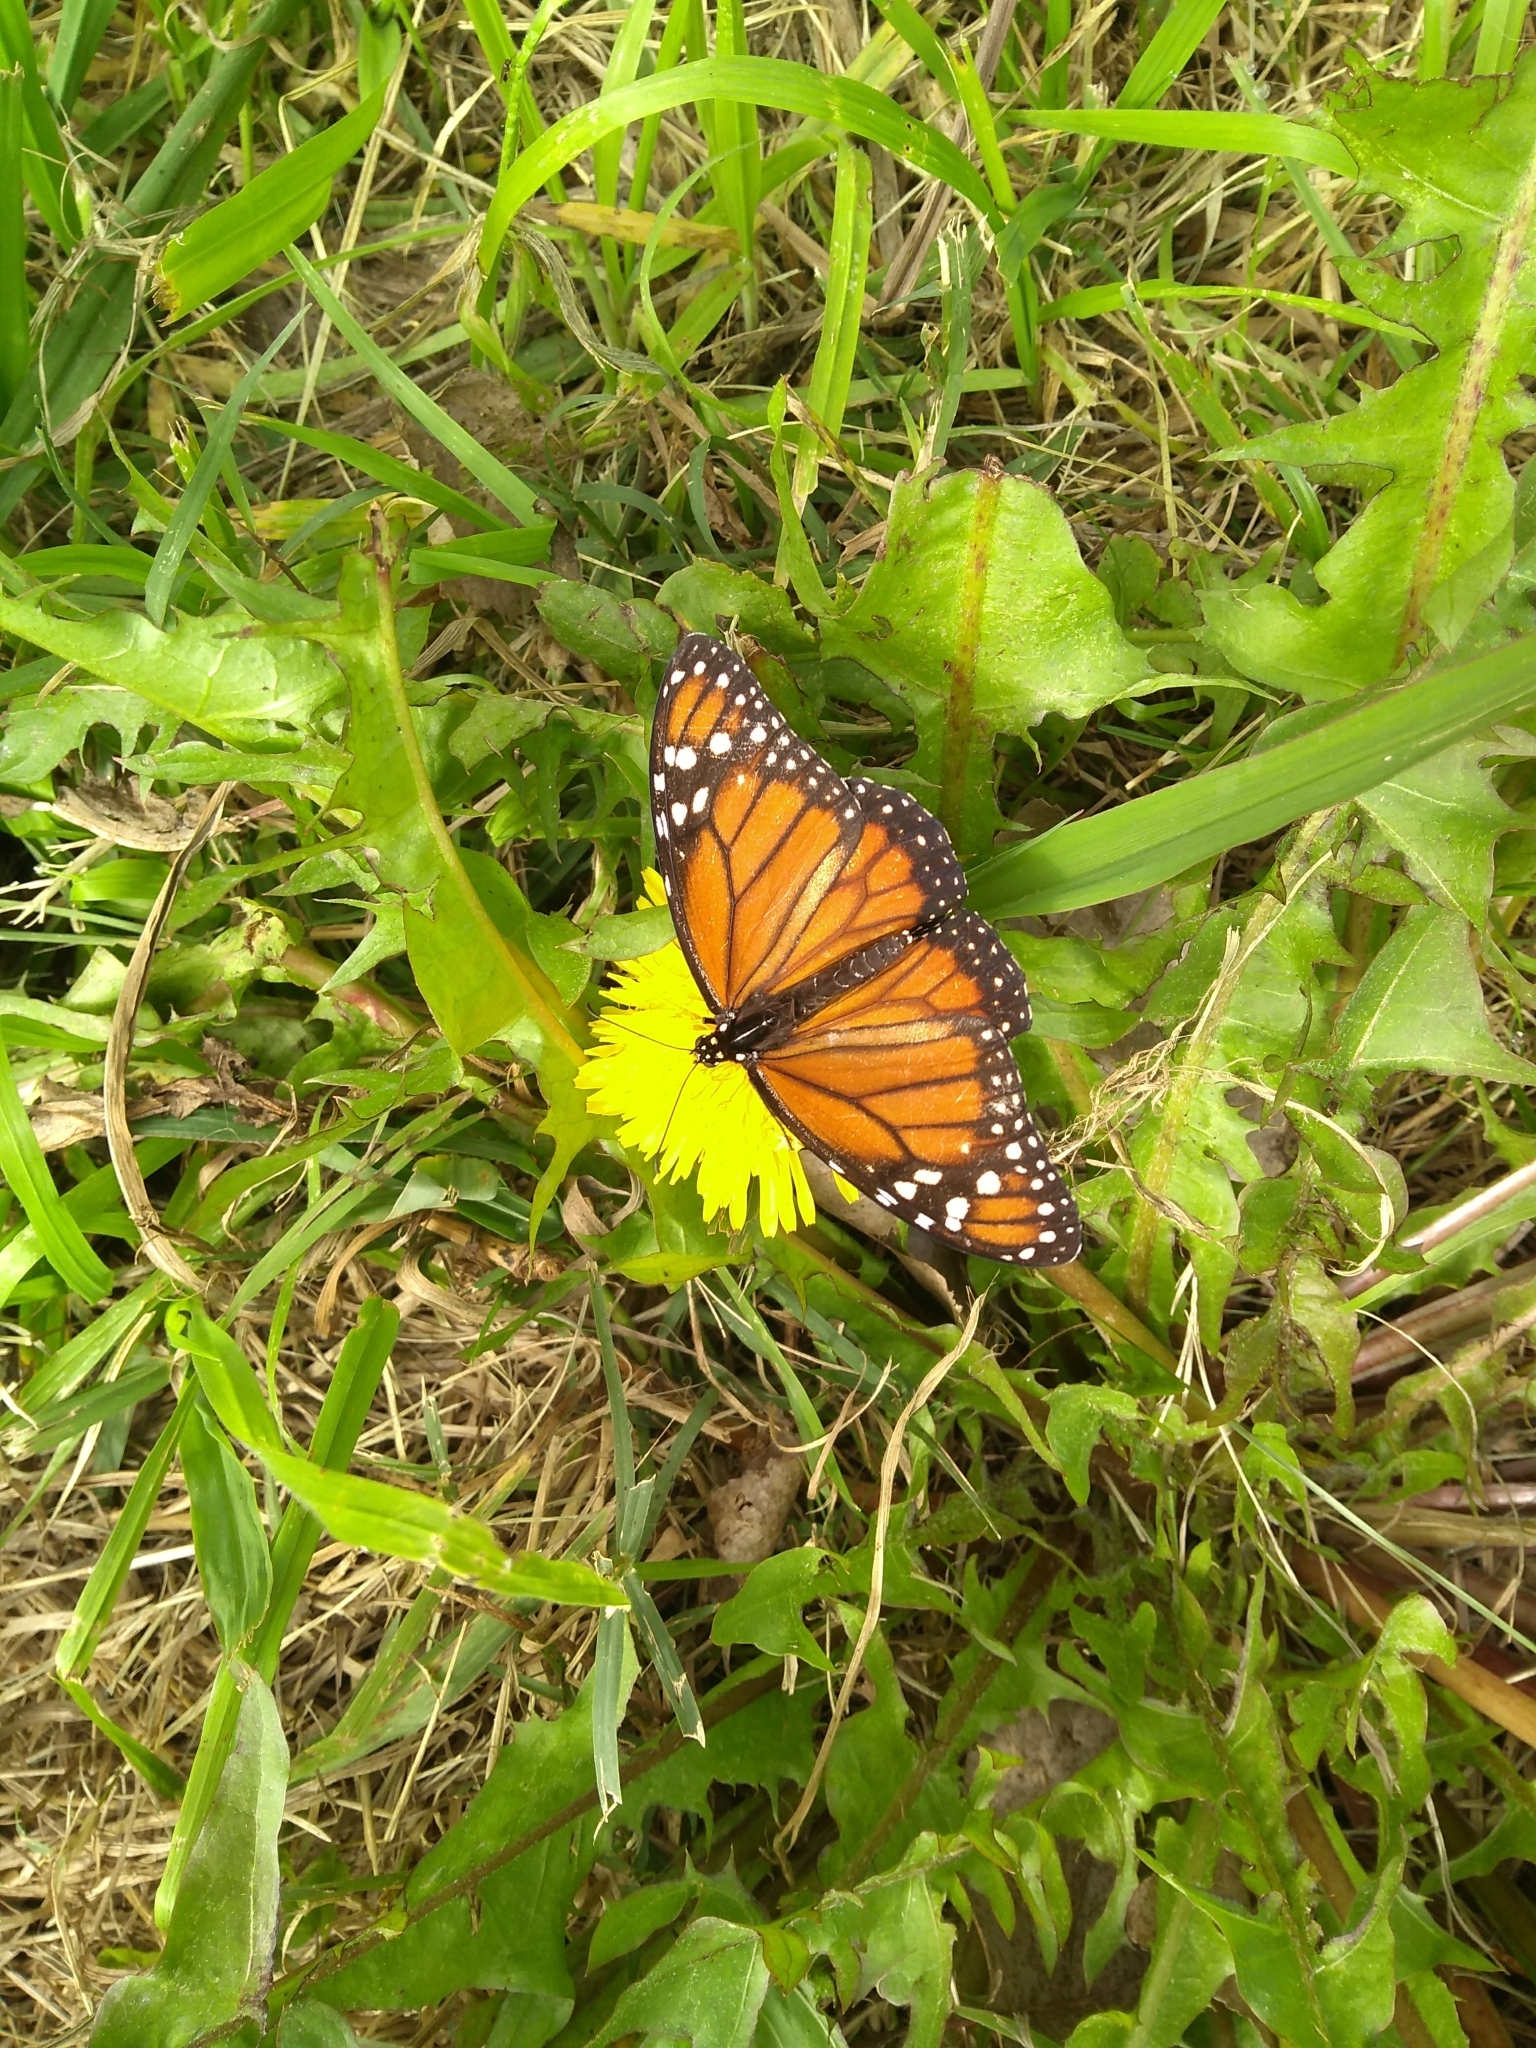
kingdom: Animalia
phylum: Arthropoda
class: Insecta
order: Lepidoptera
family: Nymphalidae
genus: Danaus
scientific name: Danaus erippus
